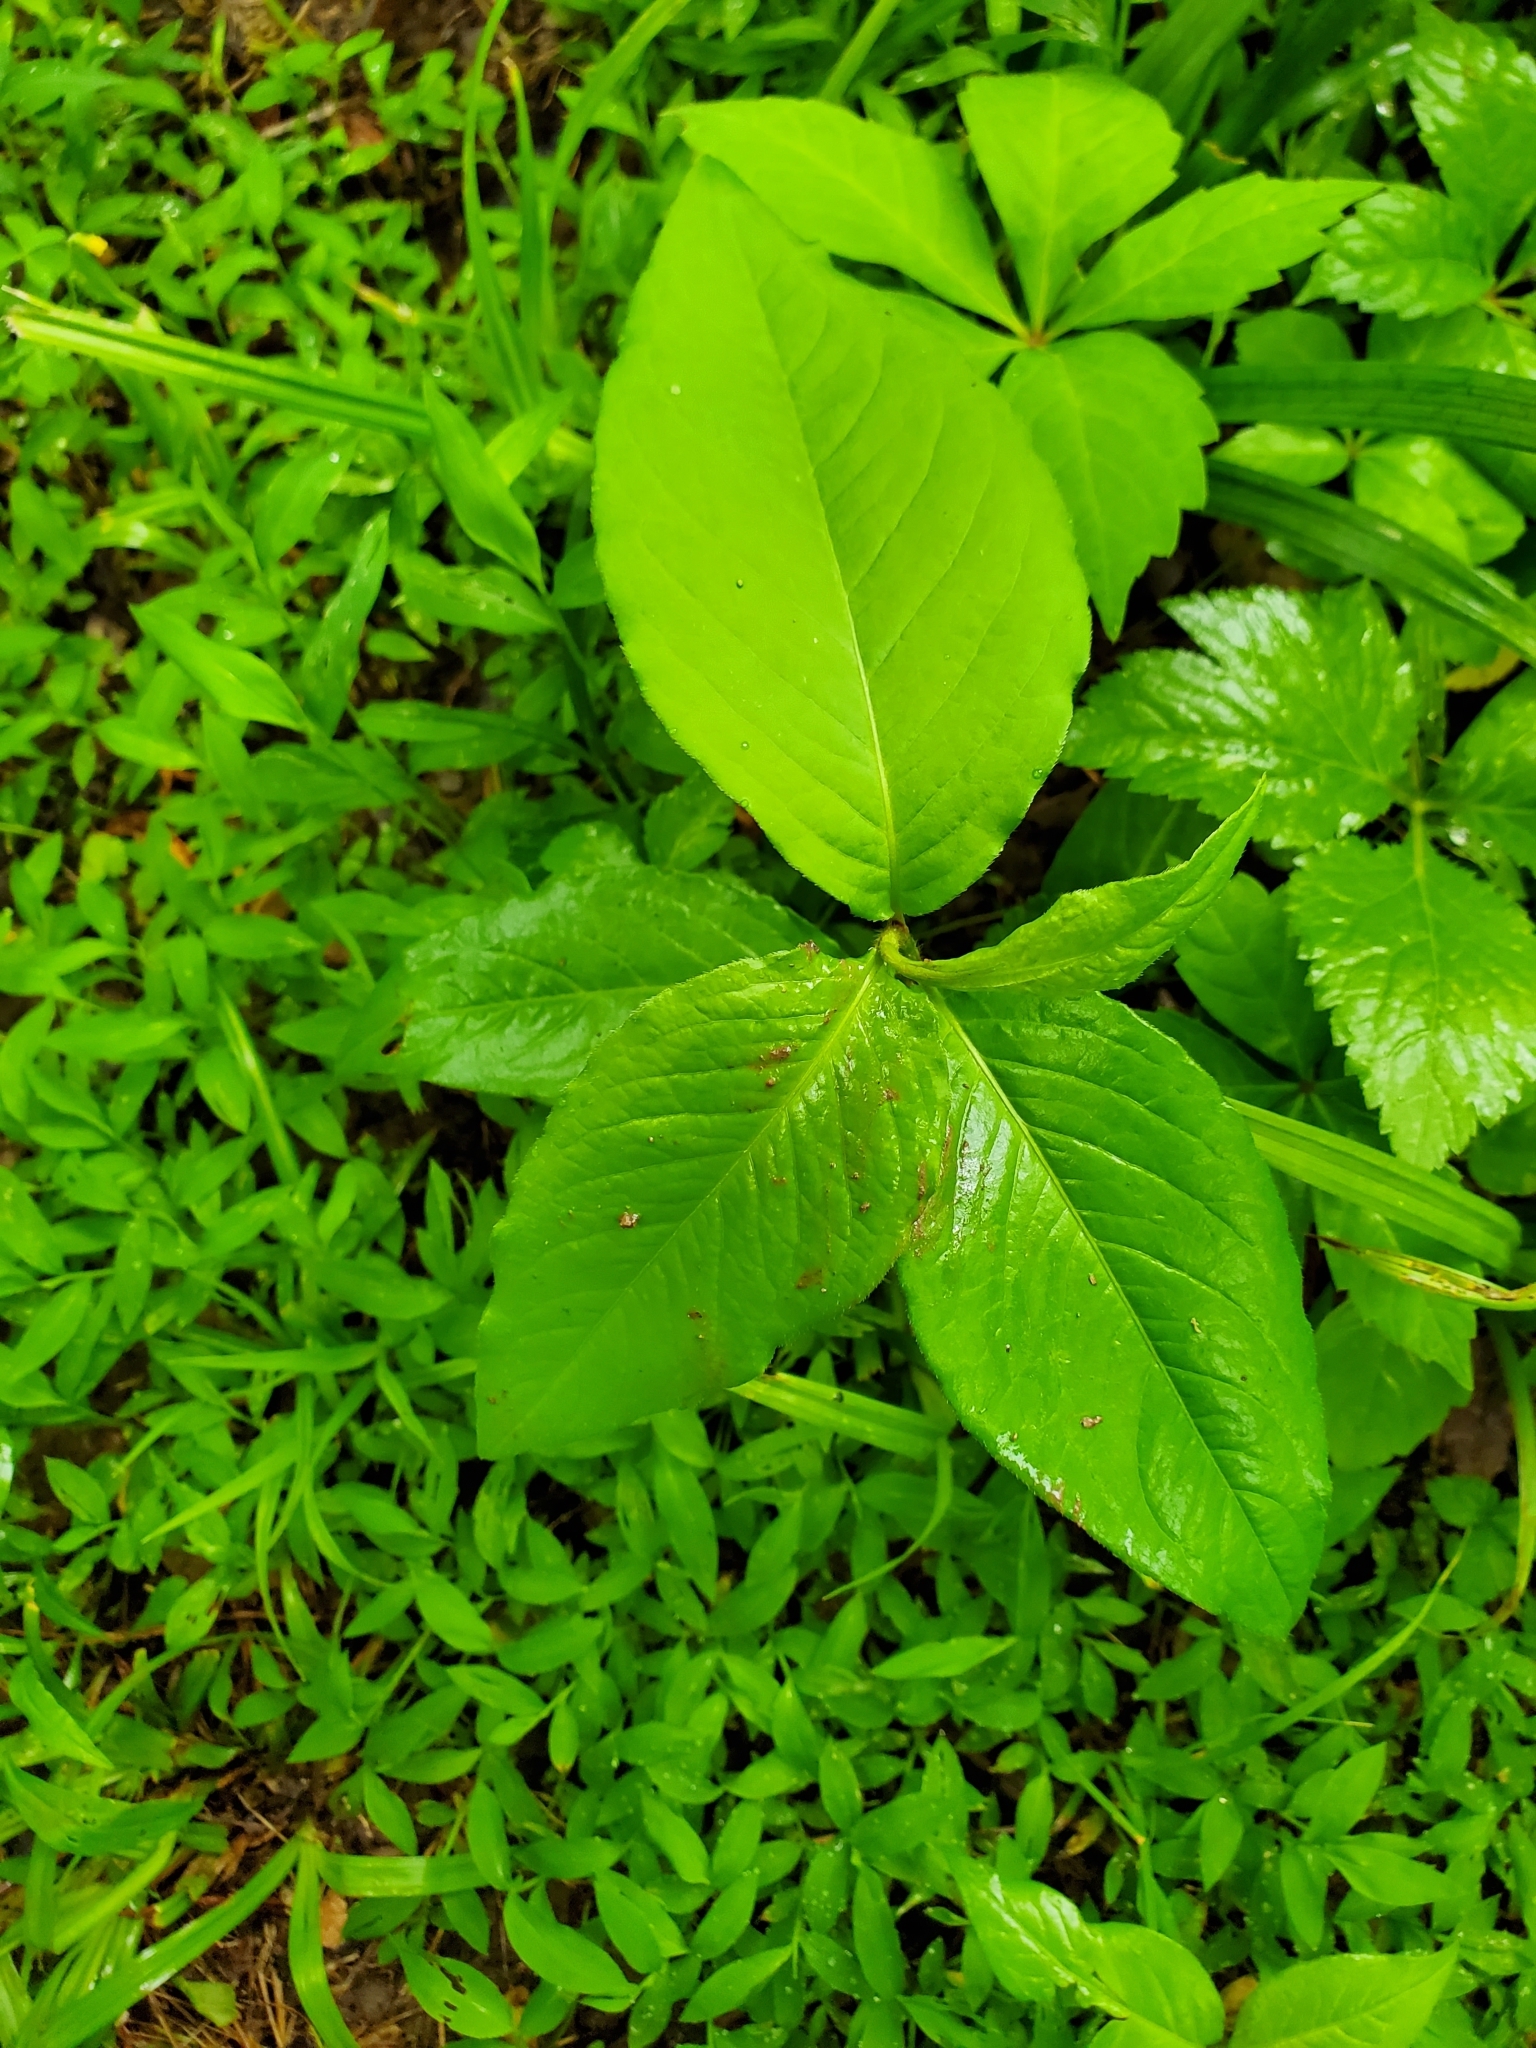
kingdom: Plantae
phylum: Tracheophyta
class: Magnoliopsida
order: Caryophyllales
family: Polygonaceae
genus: Persicaria
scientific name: Persicaria virginiana
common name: Jumpseed
